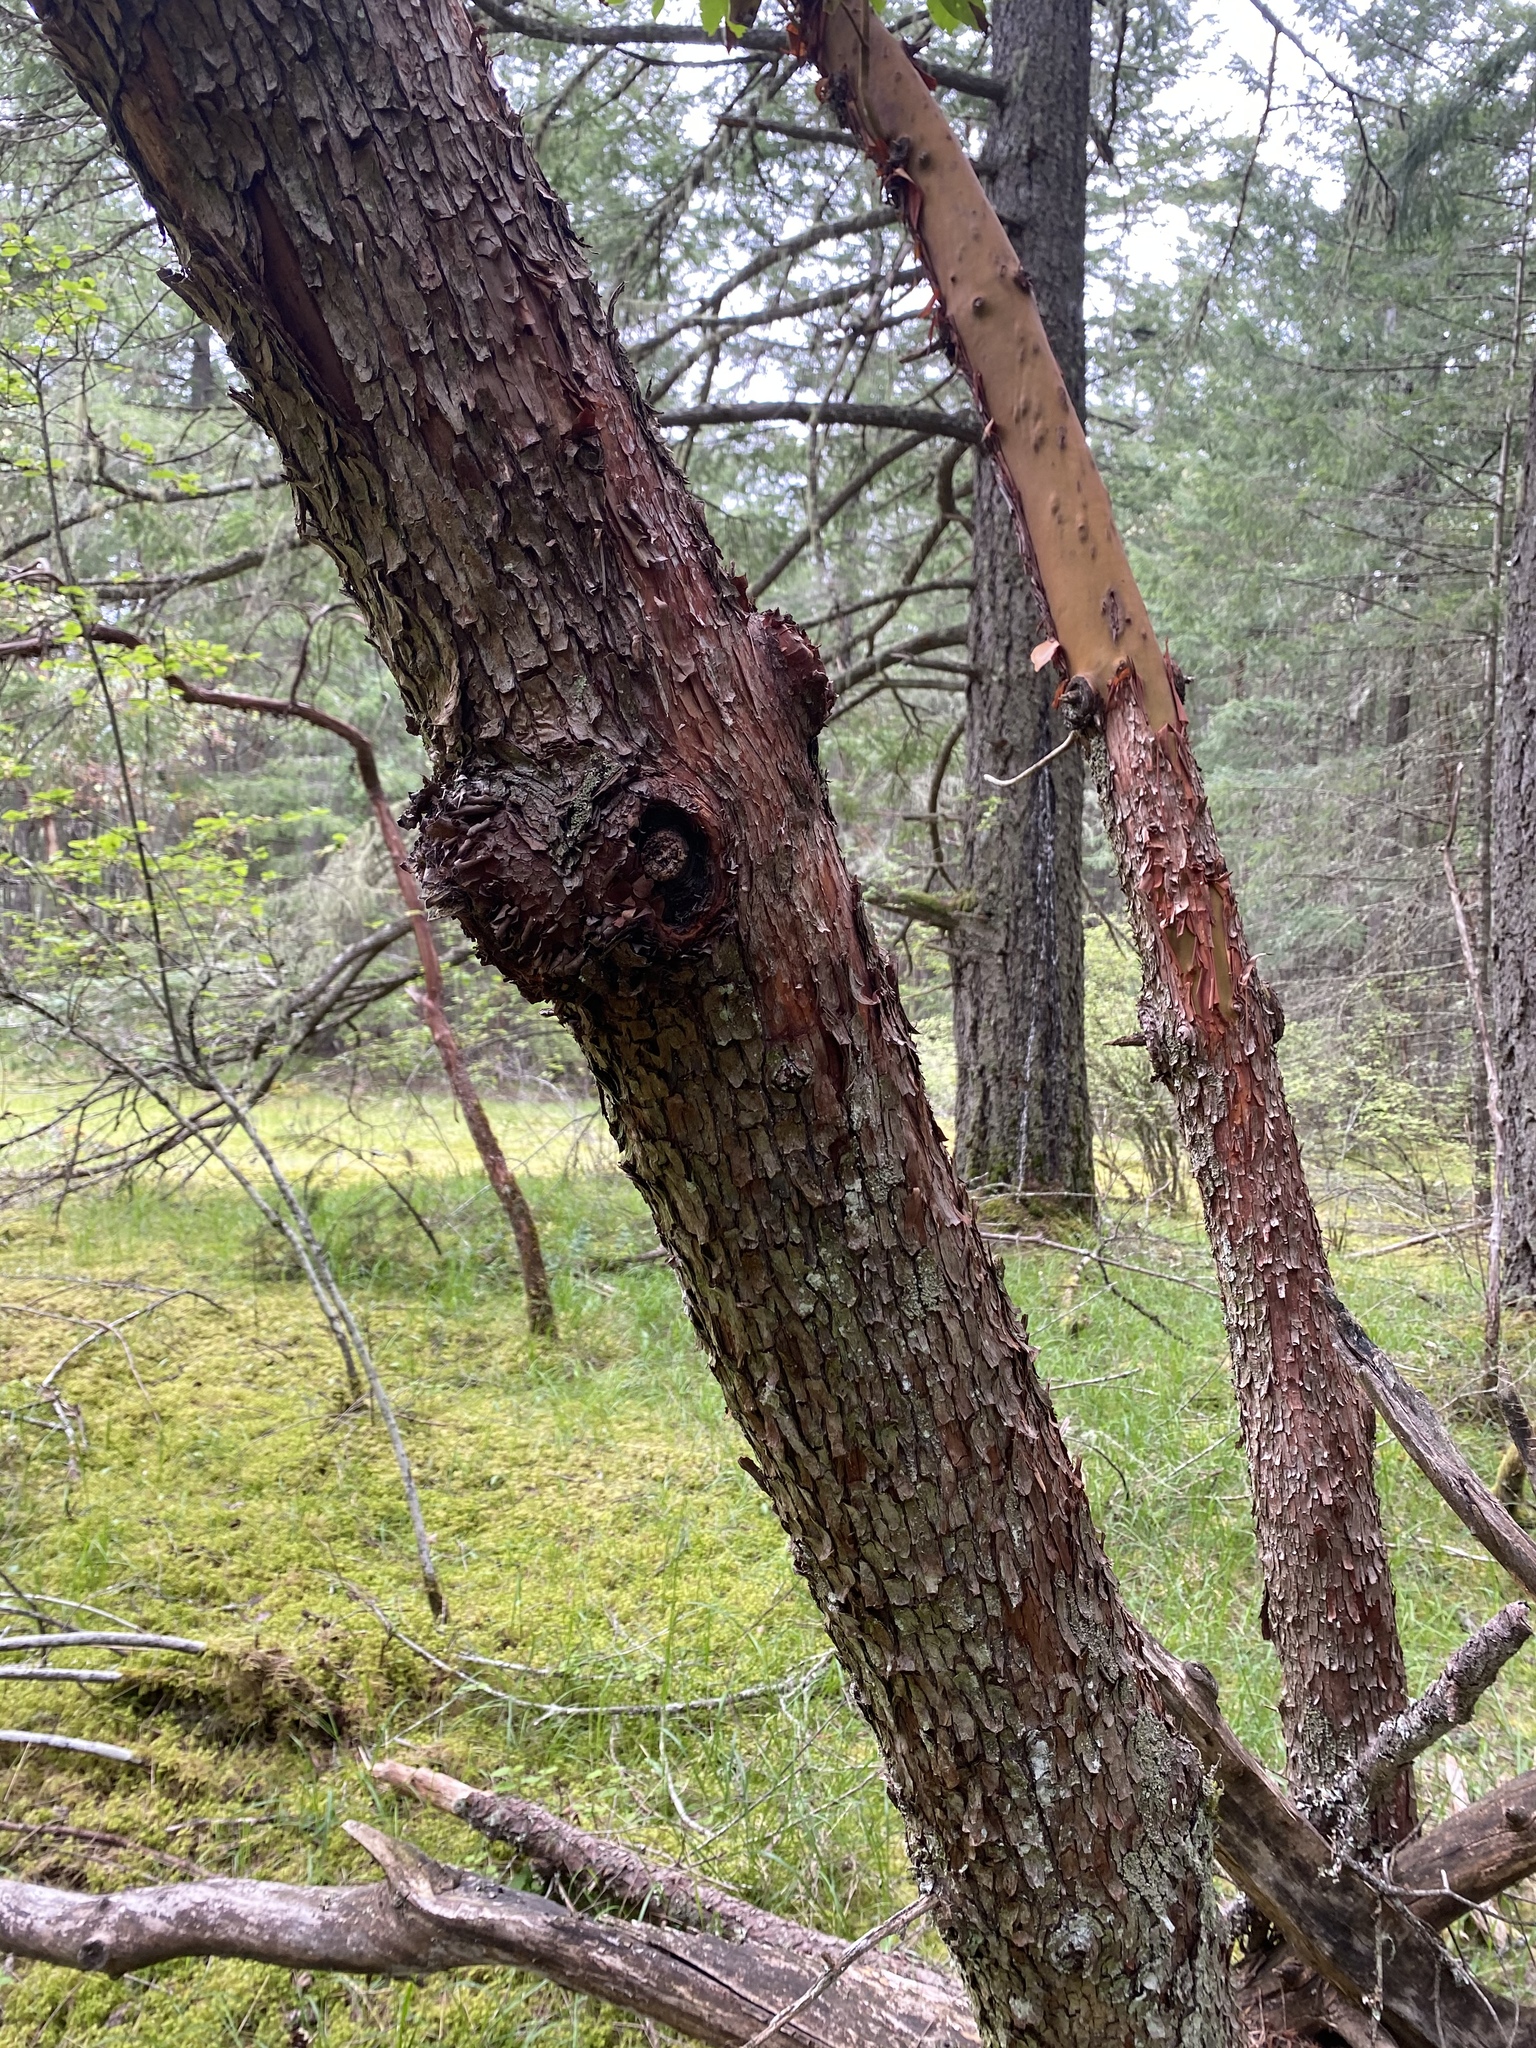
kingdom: Plantae
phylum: Tracheophyta
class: Magnoliopsida
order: Ericales
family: Ericaceae
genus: Arbutus
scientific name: Arbutus menziesii
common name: Pacific madrone
